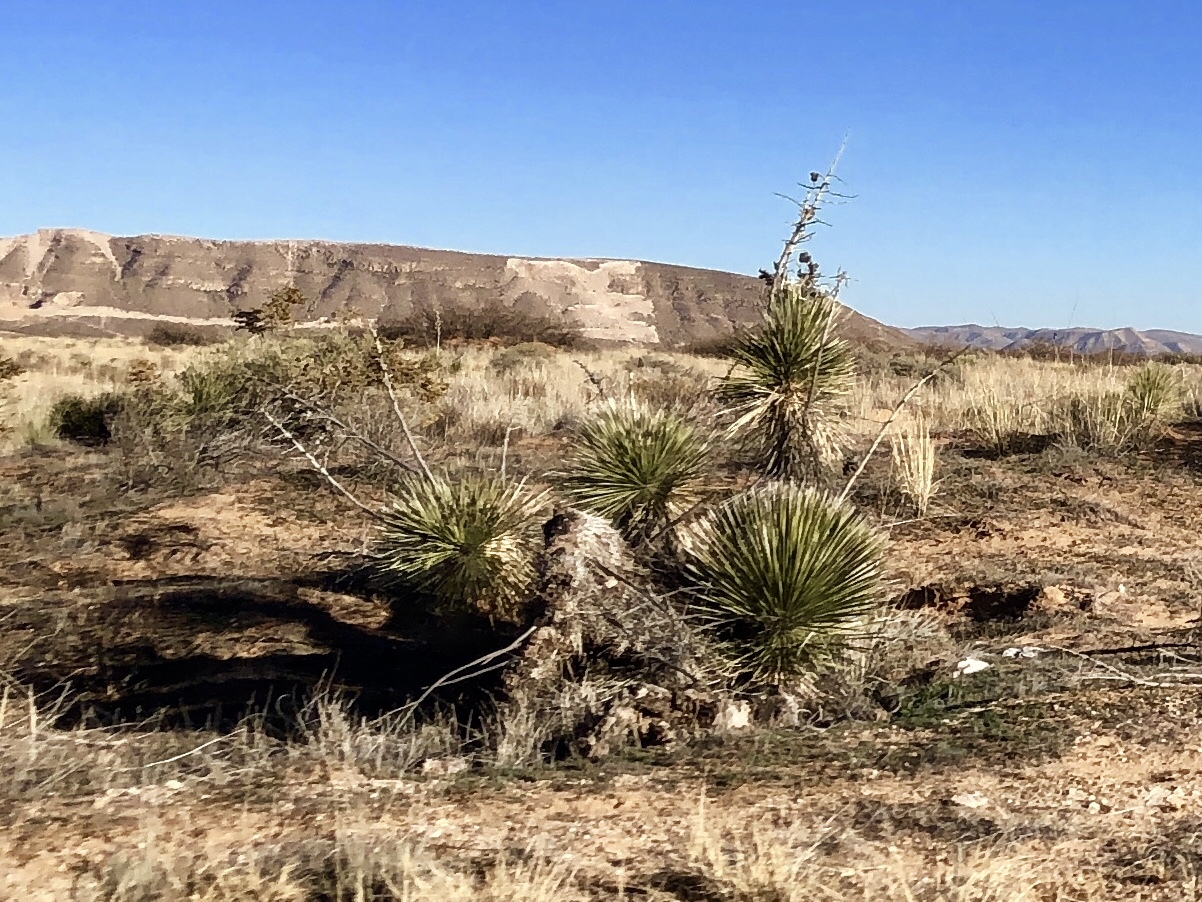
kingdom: Plantae
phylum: Tracheophyta
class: Liliopsida
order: Asparagales
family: Asparagaceae
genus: Yucca
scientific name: Yucca elata
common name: Palmella
